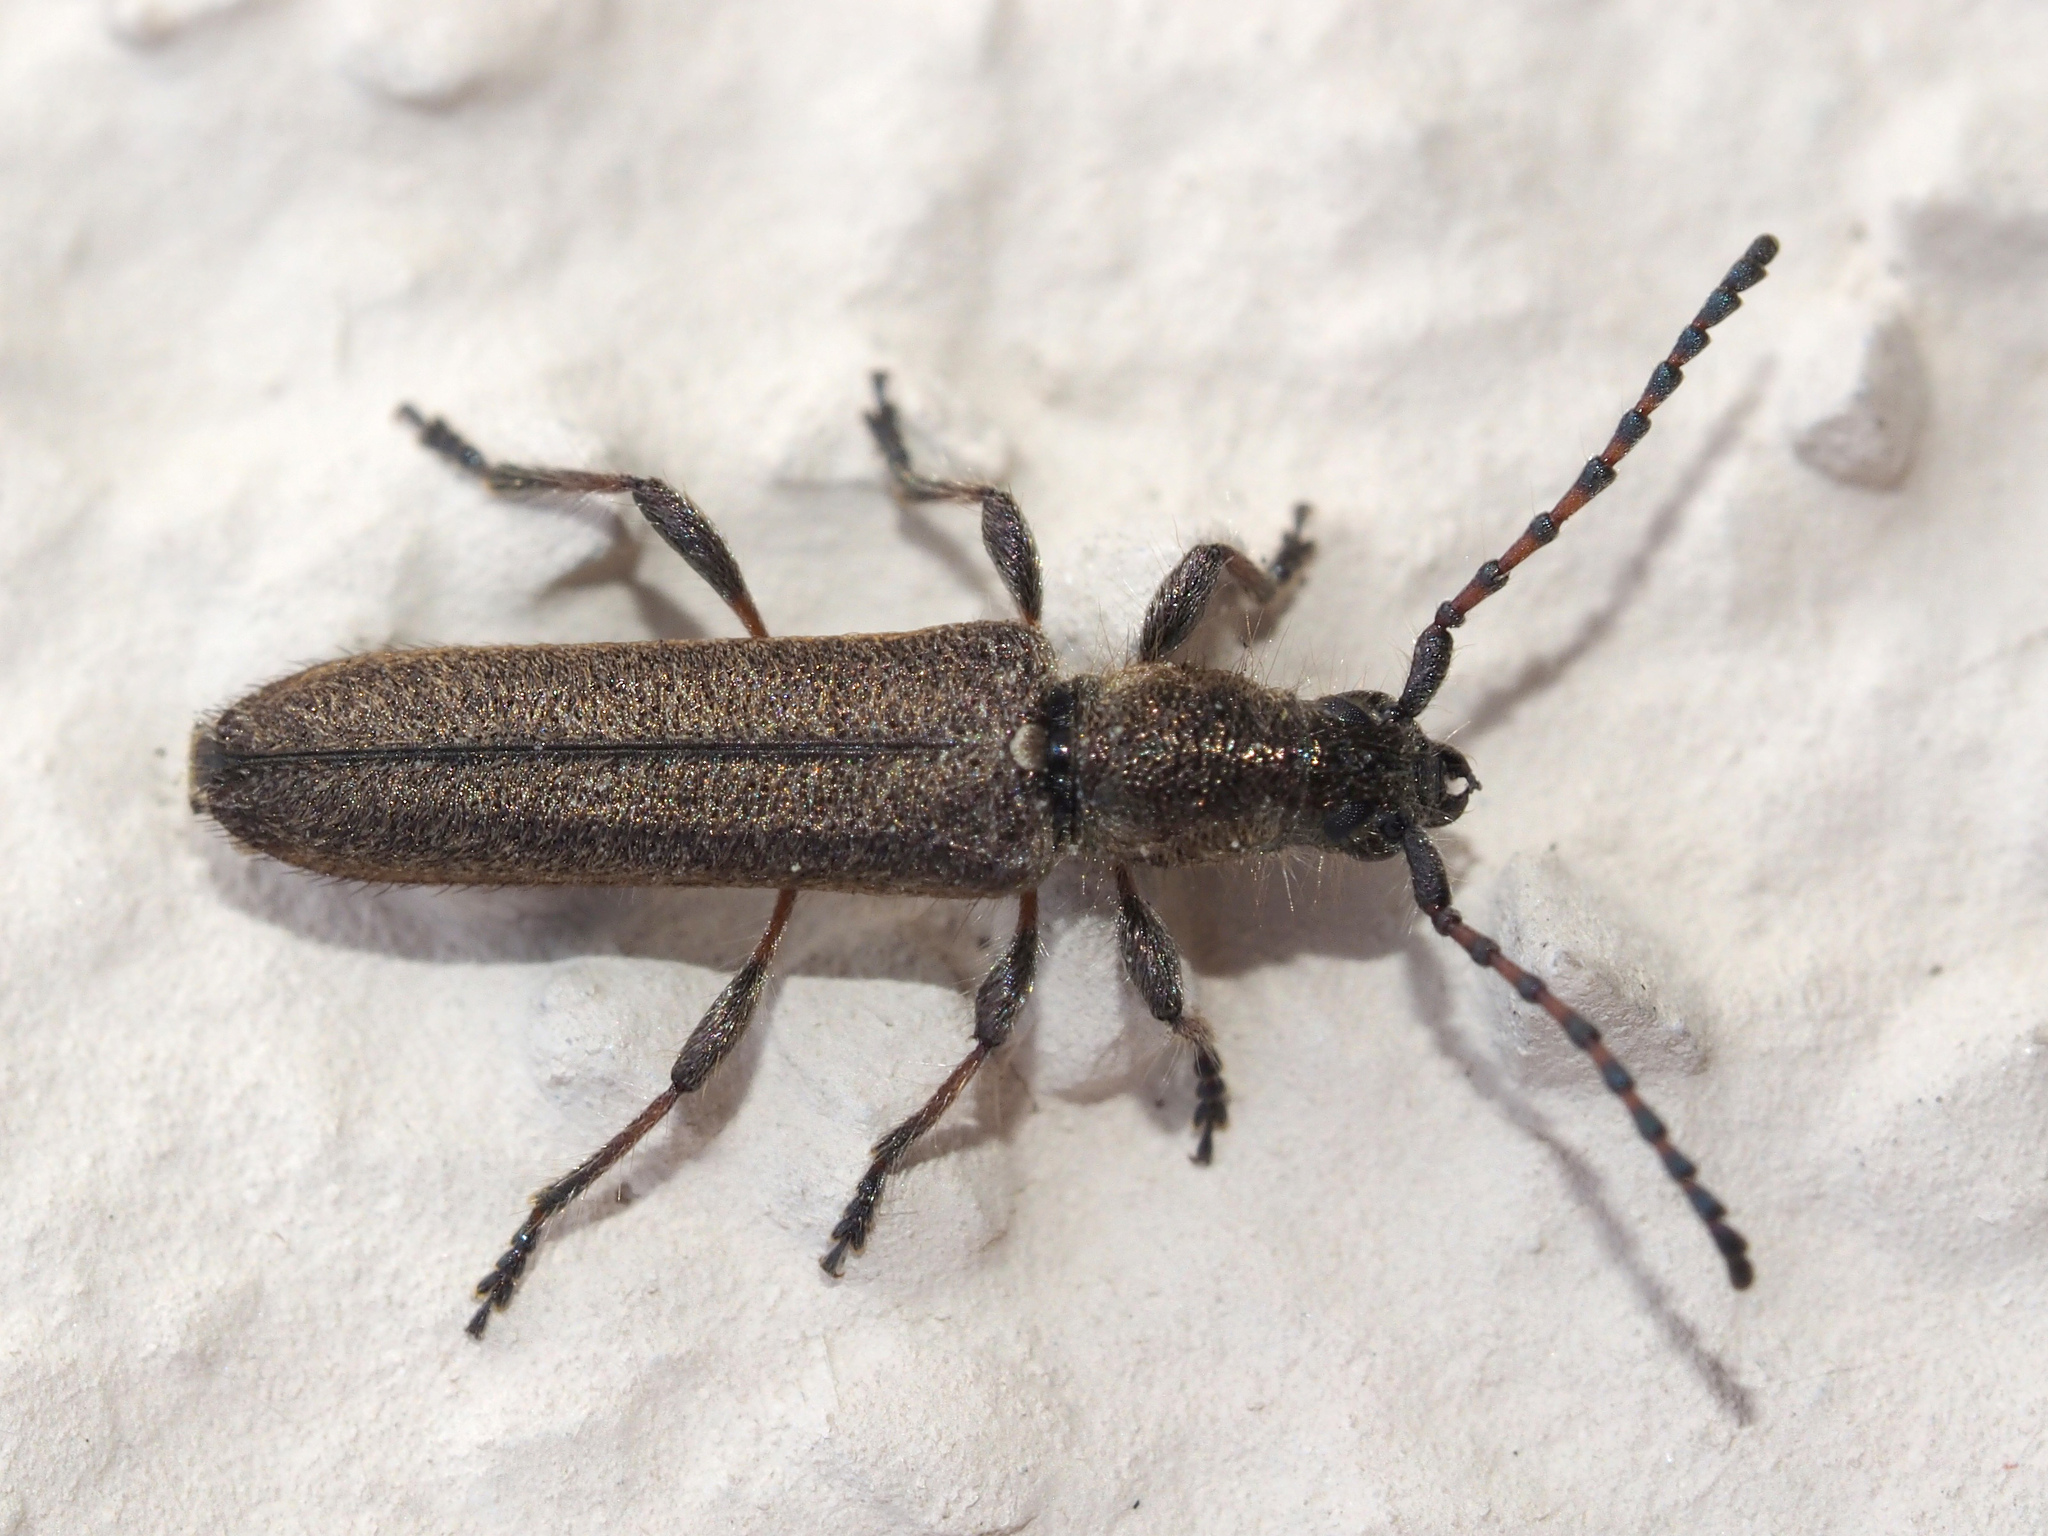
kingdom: Animalia
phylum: Arthropoda
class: Insecta
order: Coleoptera
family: Cerambycidae
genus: Deilus
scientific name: Deilus fugax
